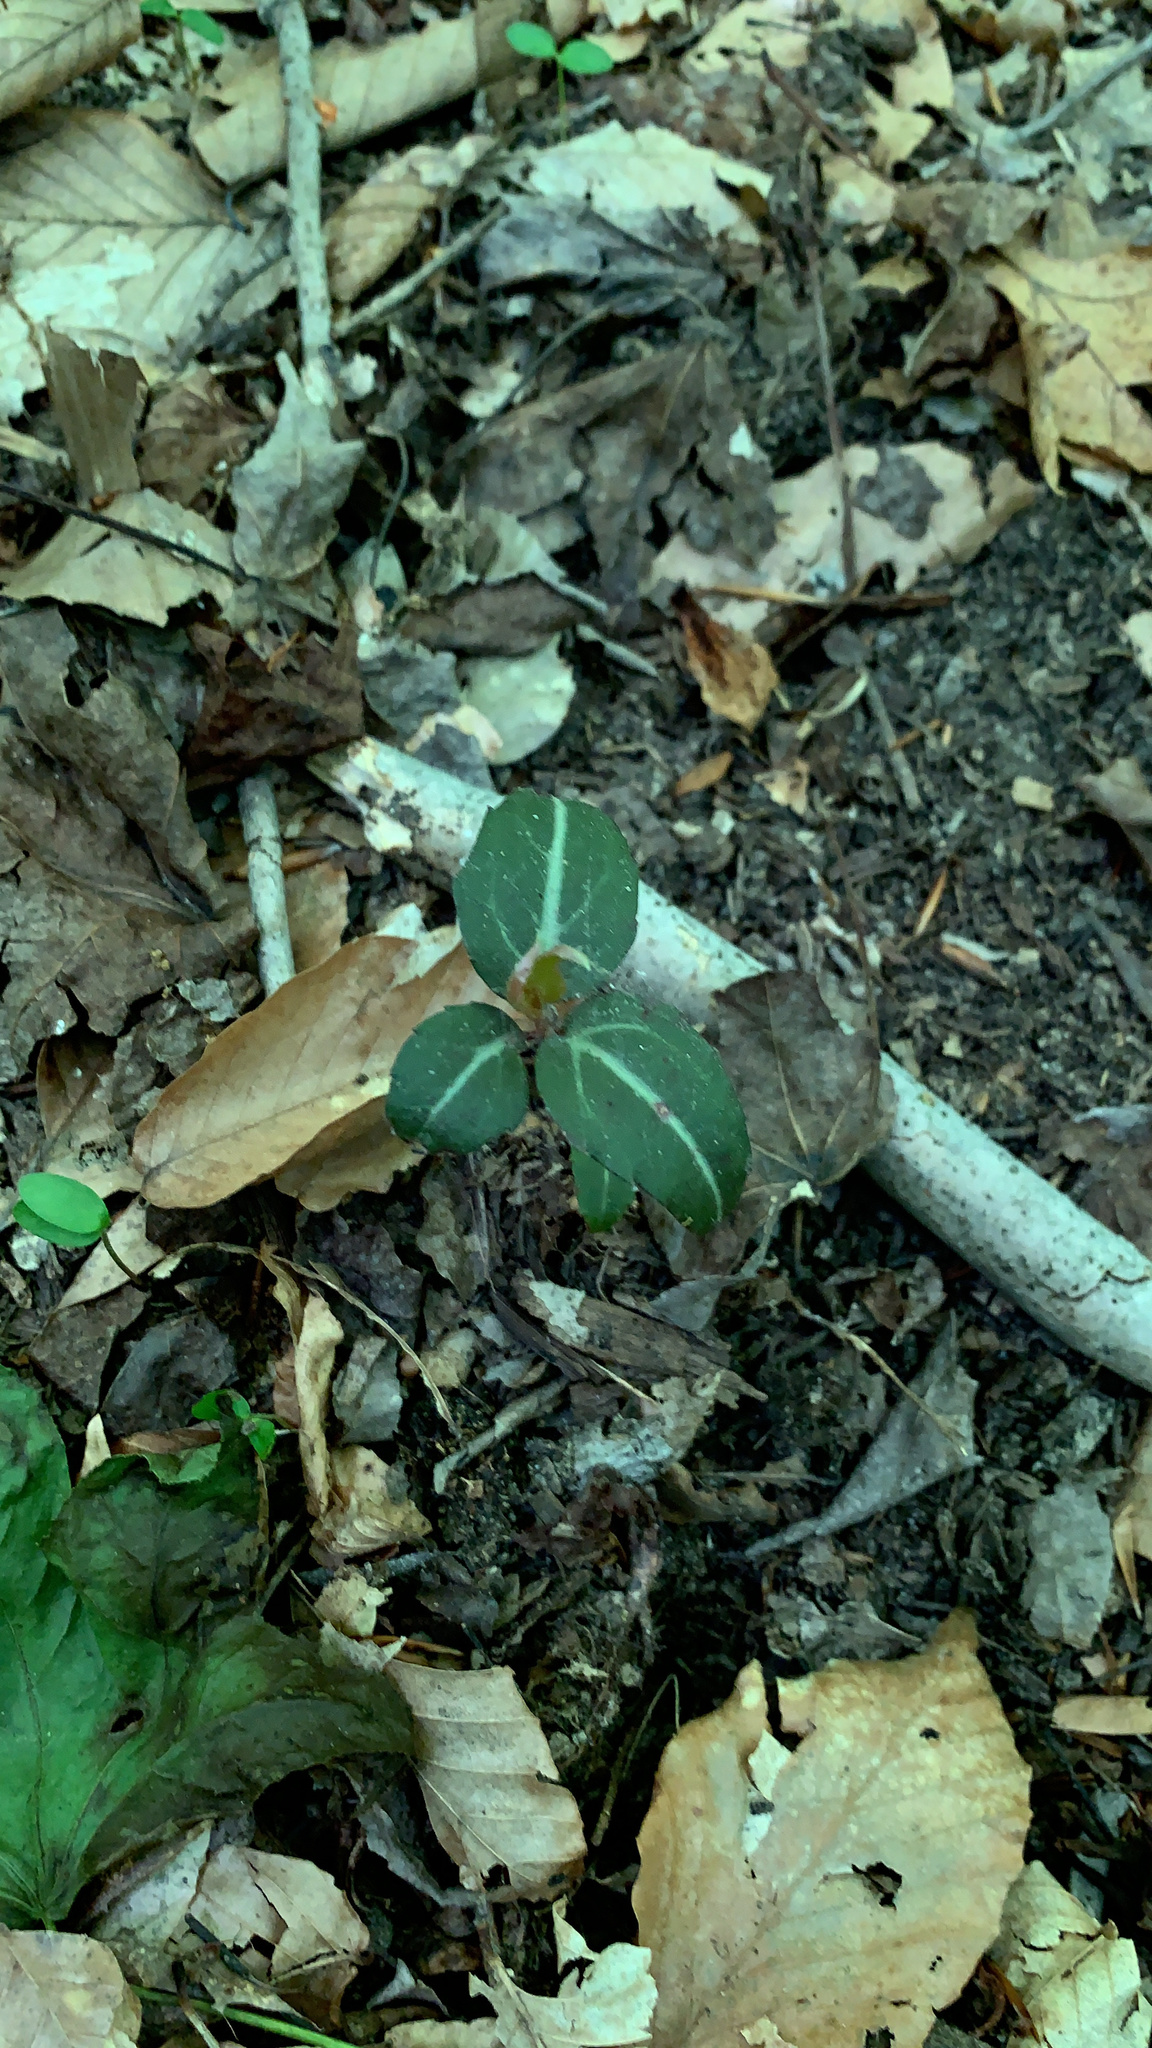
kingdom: Plantae
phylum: Tracheophyta
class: Magnoliopsida
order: Ericales
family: Ericaceae
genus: Chimaphila
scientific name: Chimaphila maculata
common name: Spotted pipsissewa
